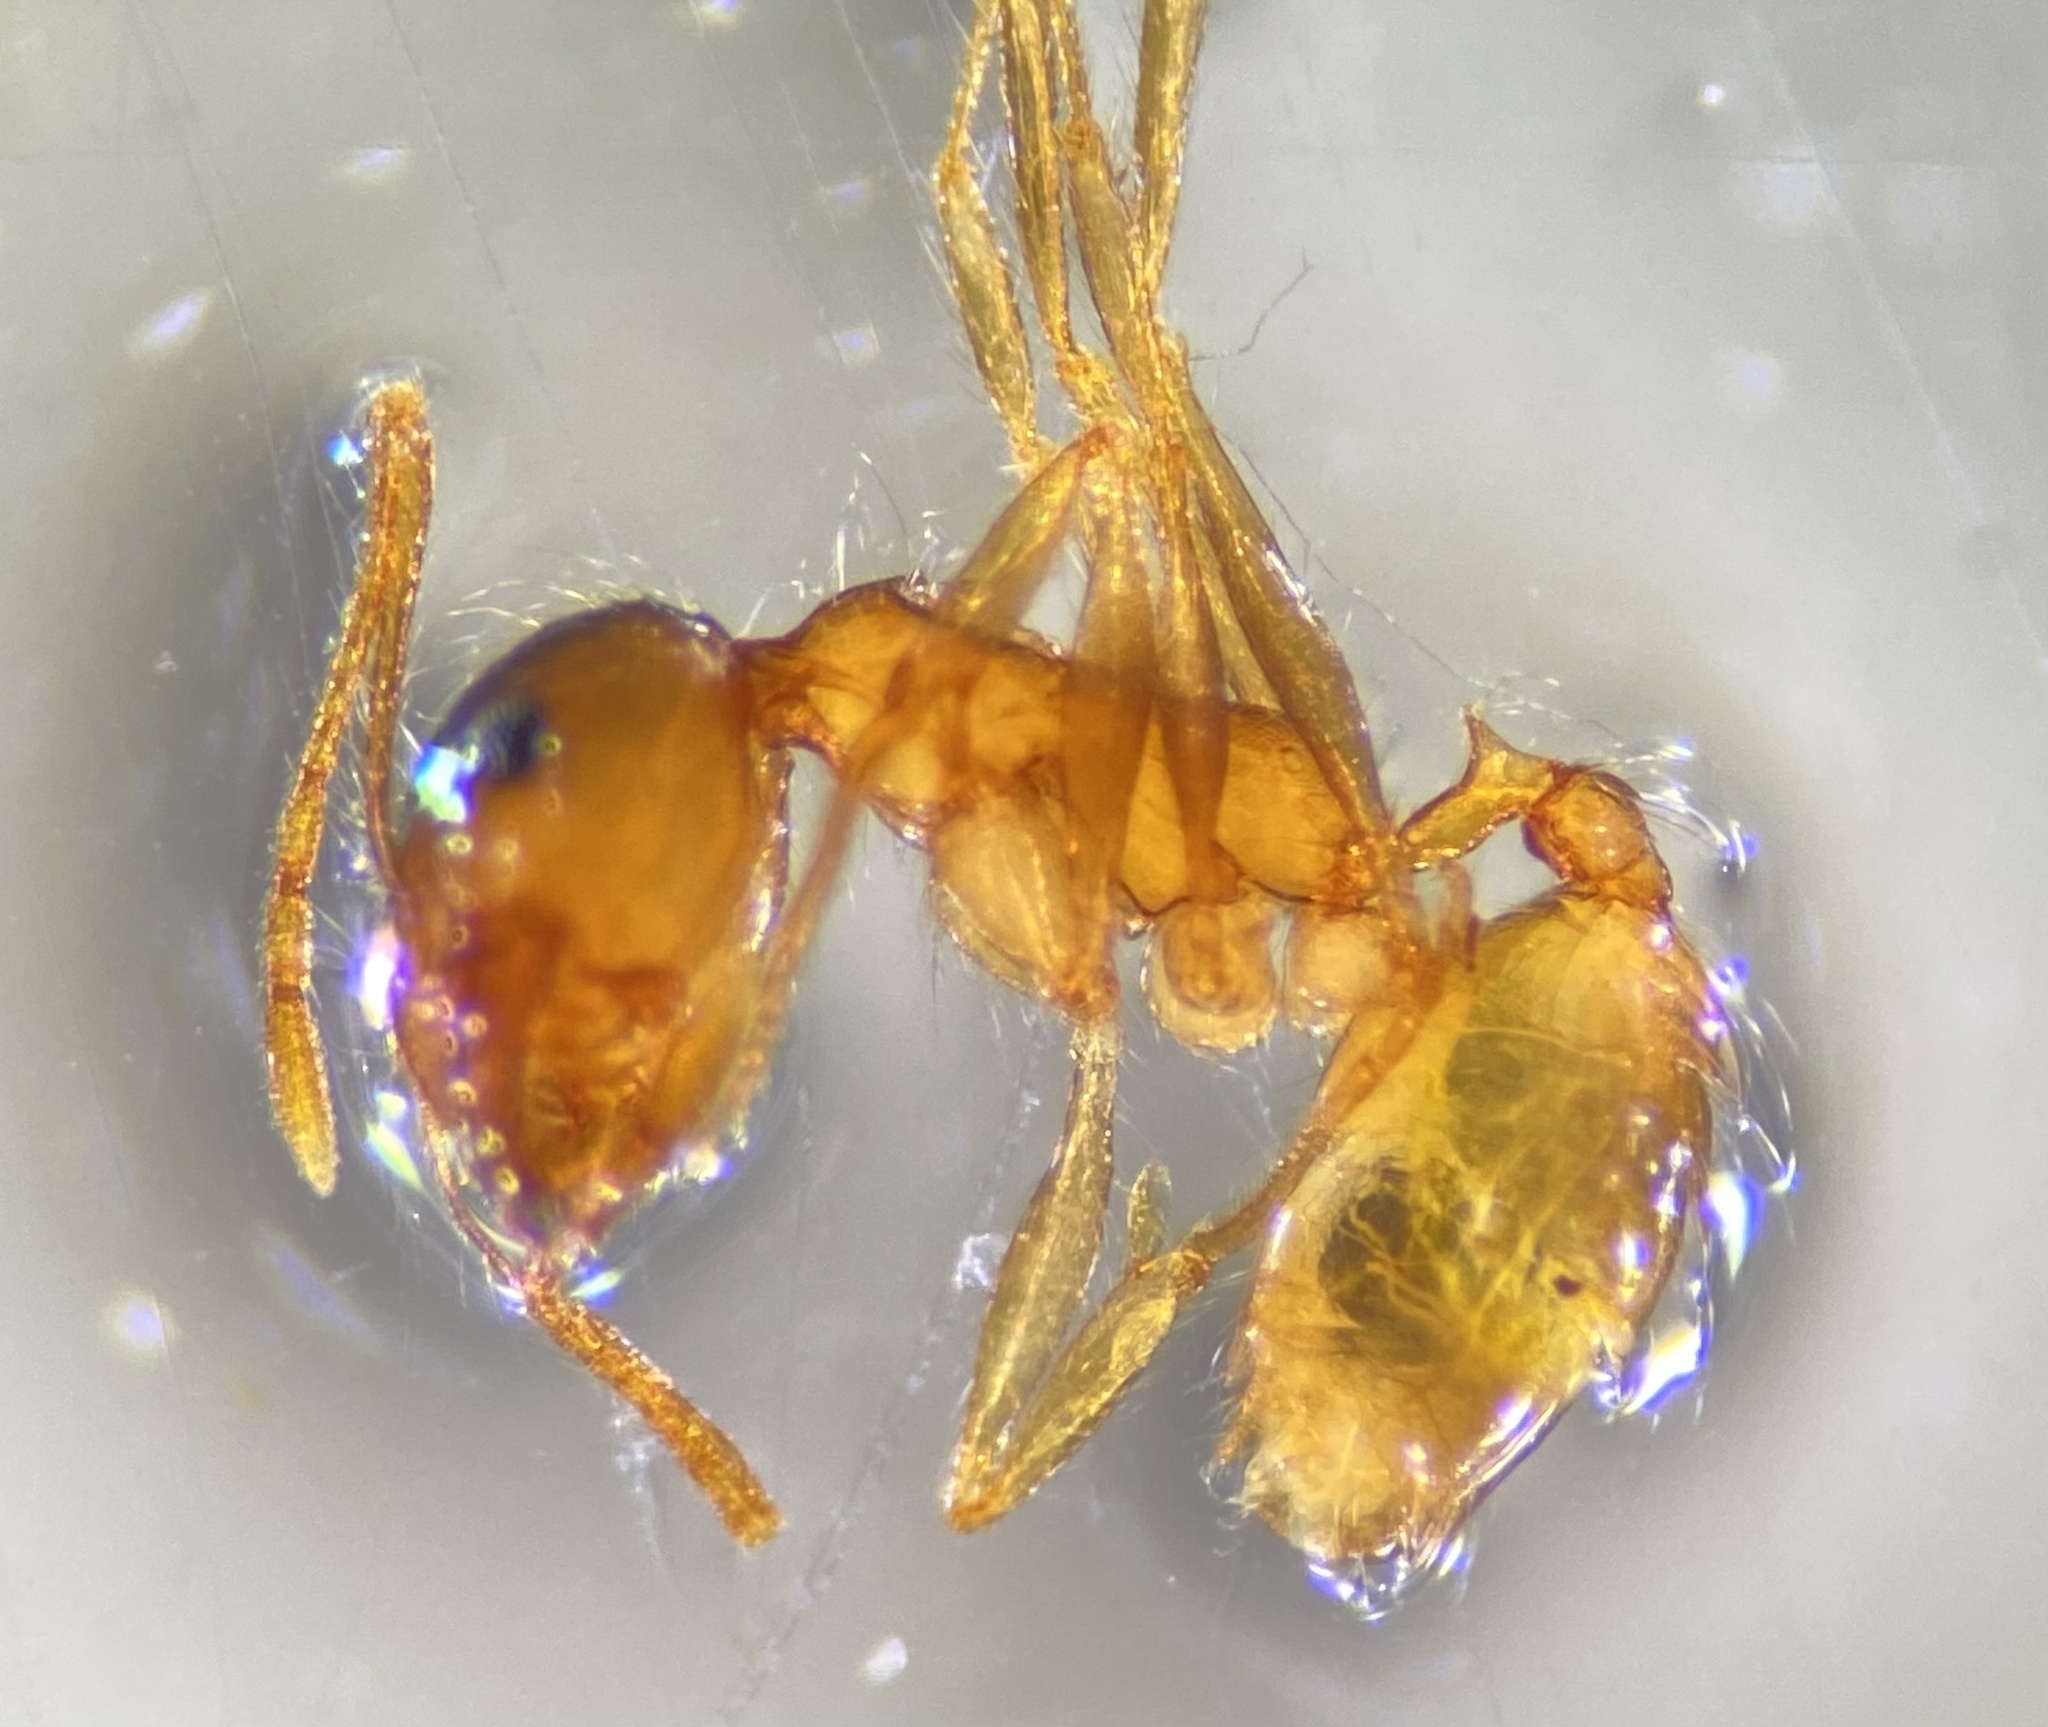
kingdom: Animalia
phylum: Arthropoda
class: Insecta
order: Hymenoptera
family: Formicidae
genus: Pheidole
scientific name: Pheidole morrisii
